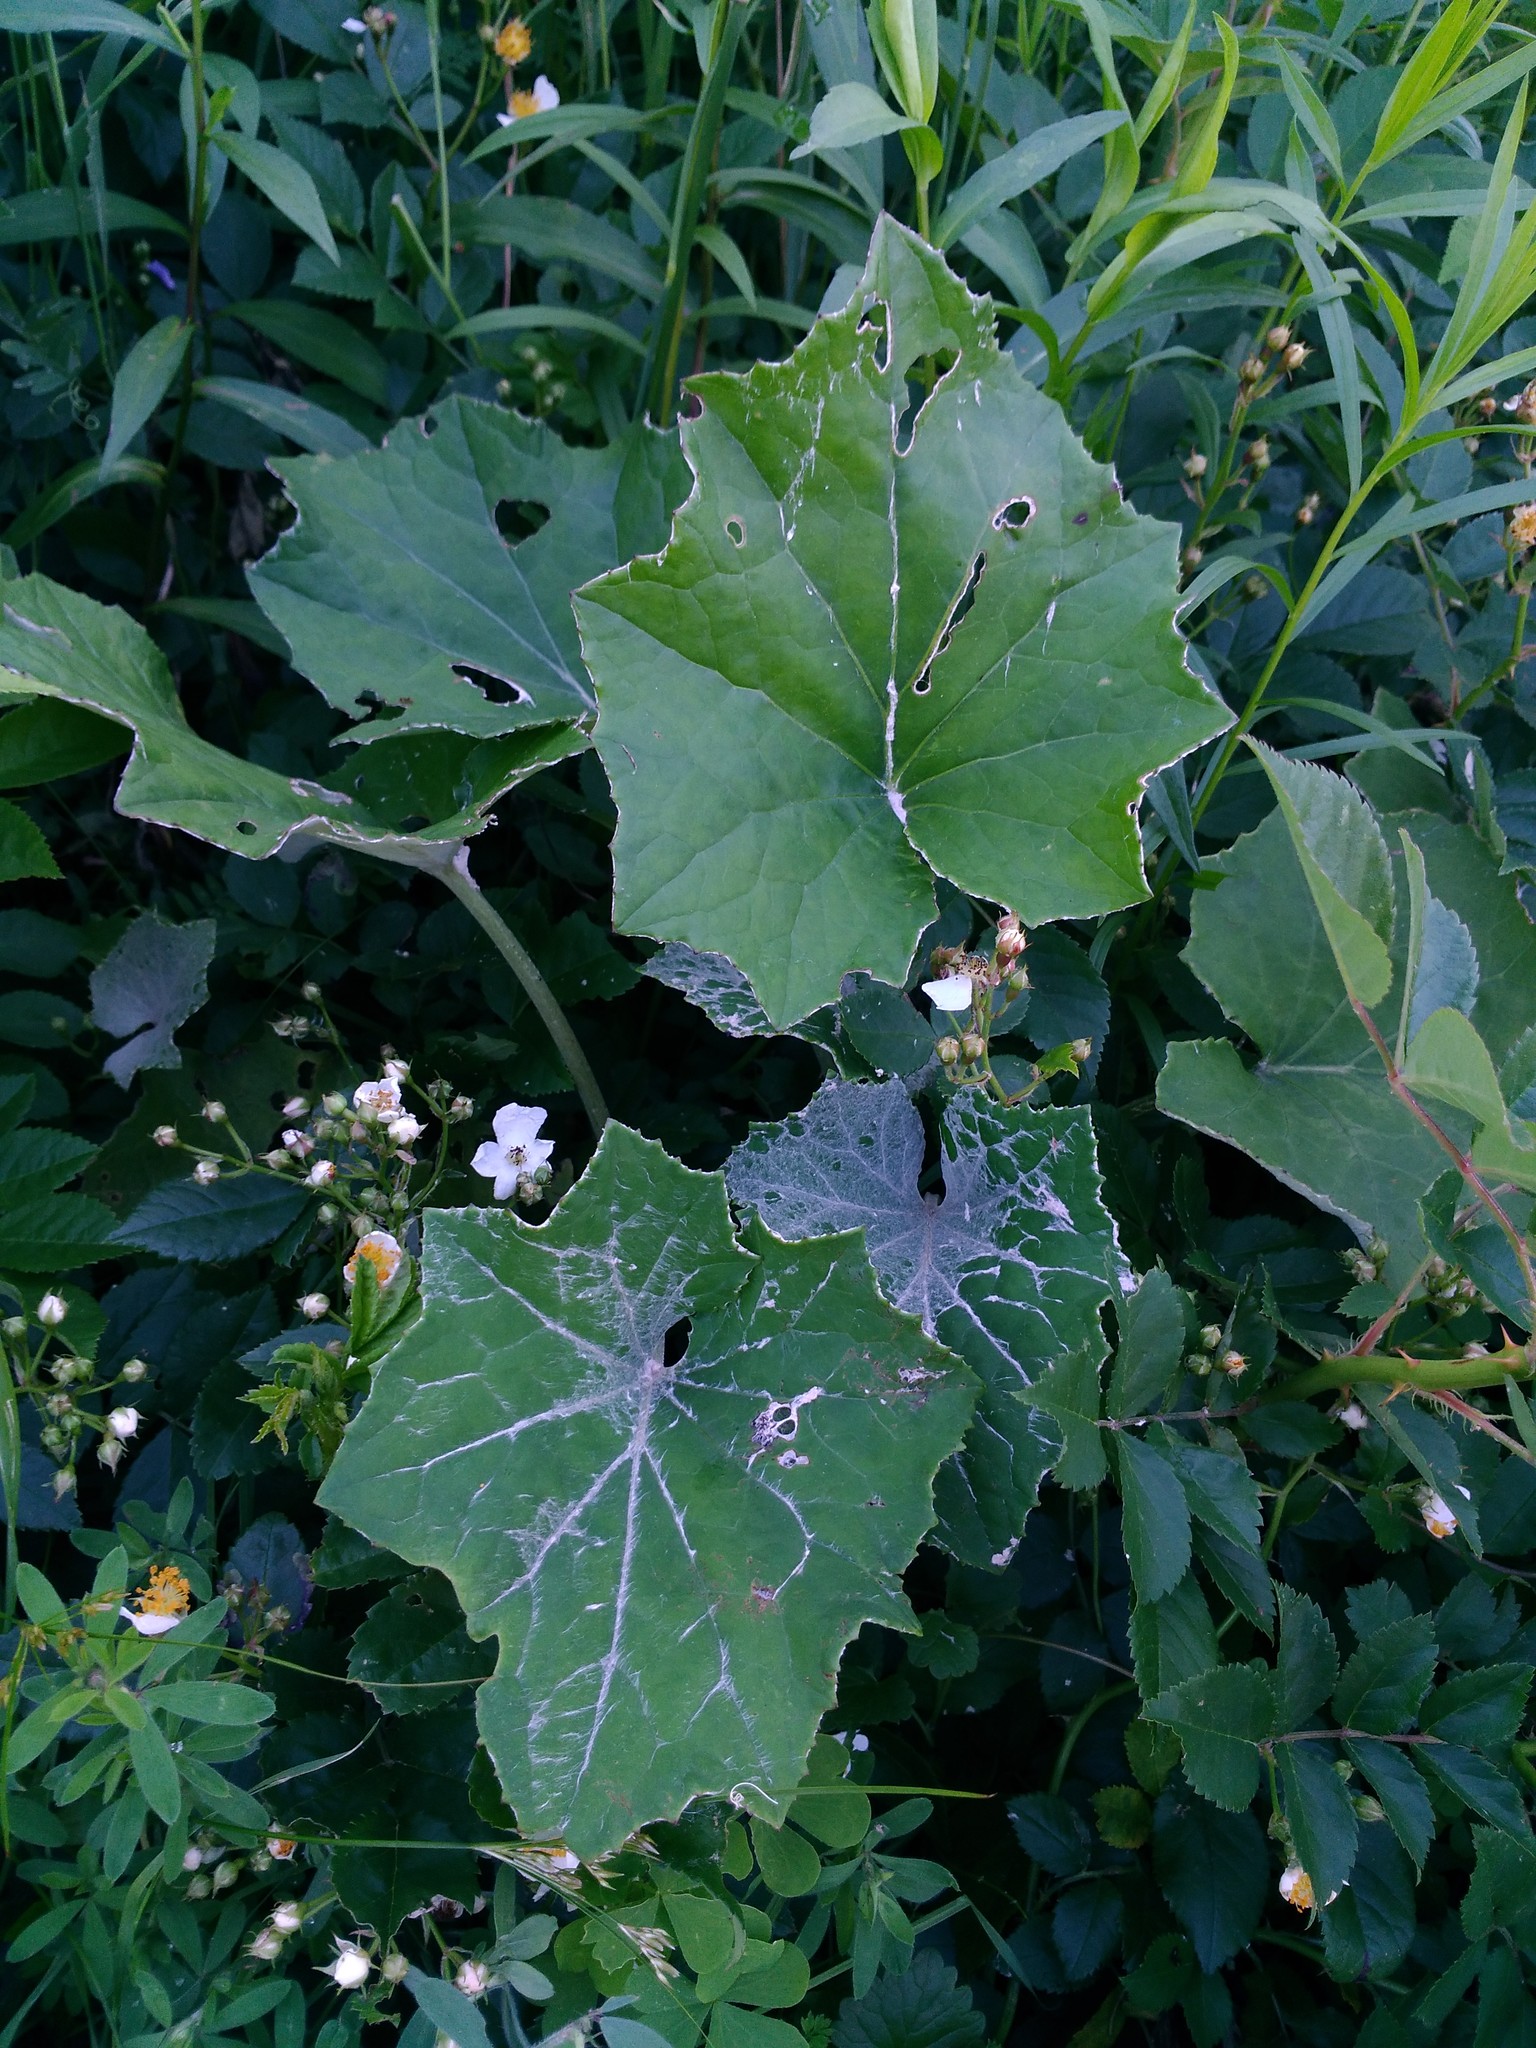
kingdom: Plantae
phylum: Tracheophyta
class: Magnoliopsida
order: Asterales
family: Asteraceae
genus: Tussilago
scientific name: Tussilago farfara
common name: Coltsfoot
